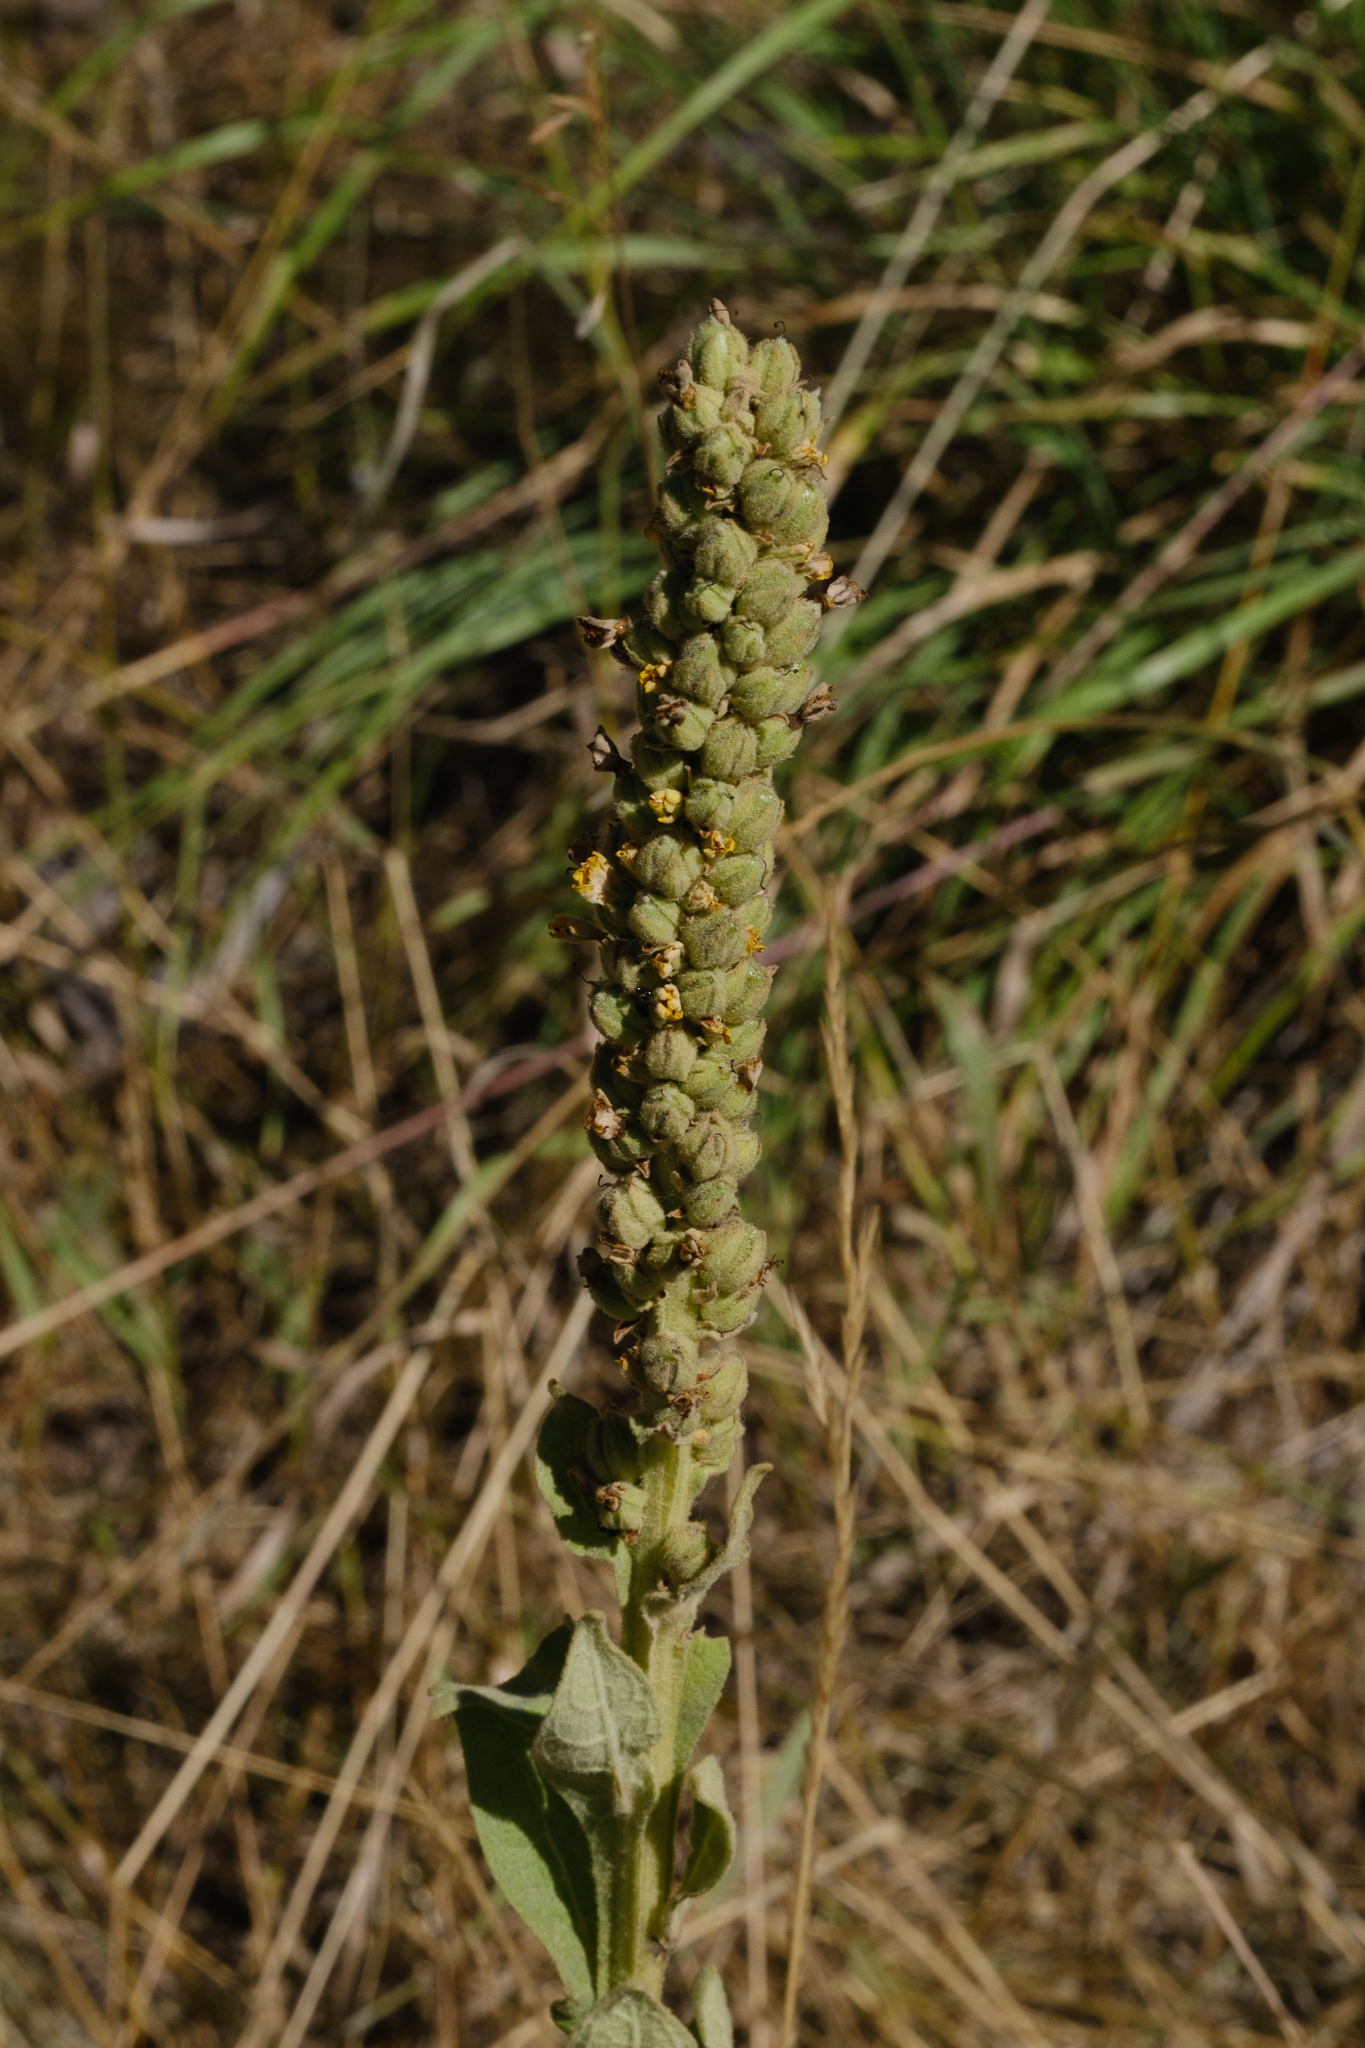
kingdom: Plantae
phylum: Tracheophyta
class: Magnoliopsida
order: Lamiales
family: Scrophulariaceae
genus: Verbascum
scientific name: Verbascum thapsus
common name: Common mullein
